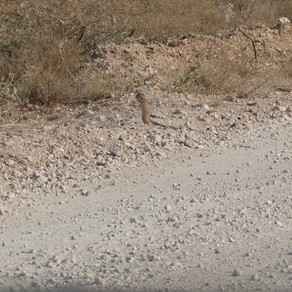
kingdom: Animalia
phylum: Chordata
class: Mammalia
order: Rodentia
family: Sciuridae
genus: Xerus
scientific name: Xerus rutilus
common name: Unstriped ground squirrel
